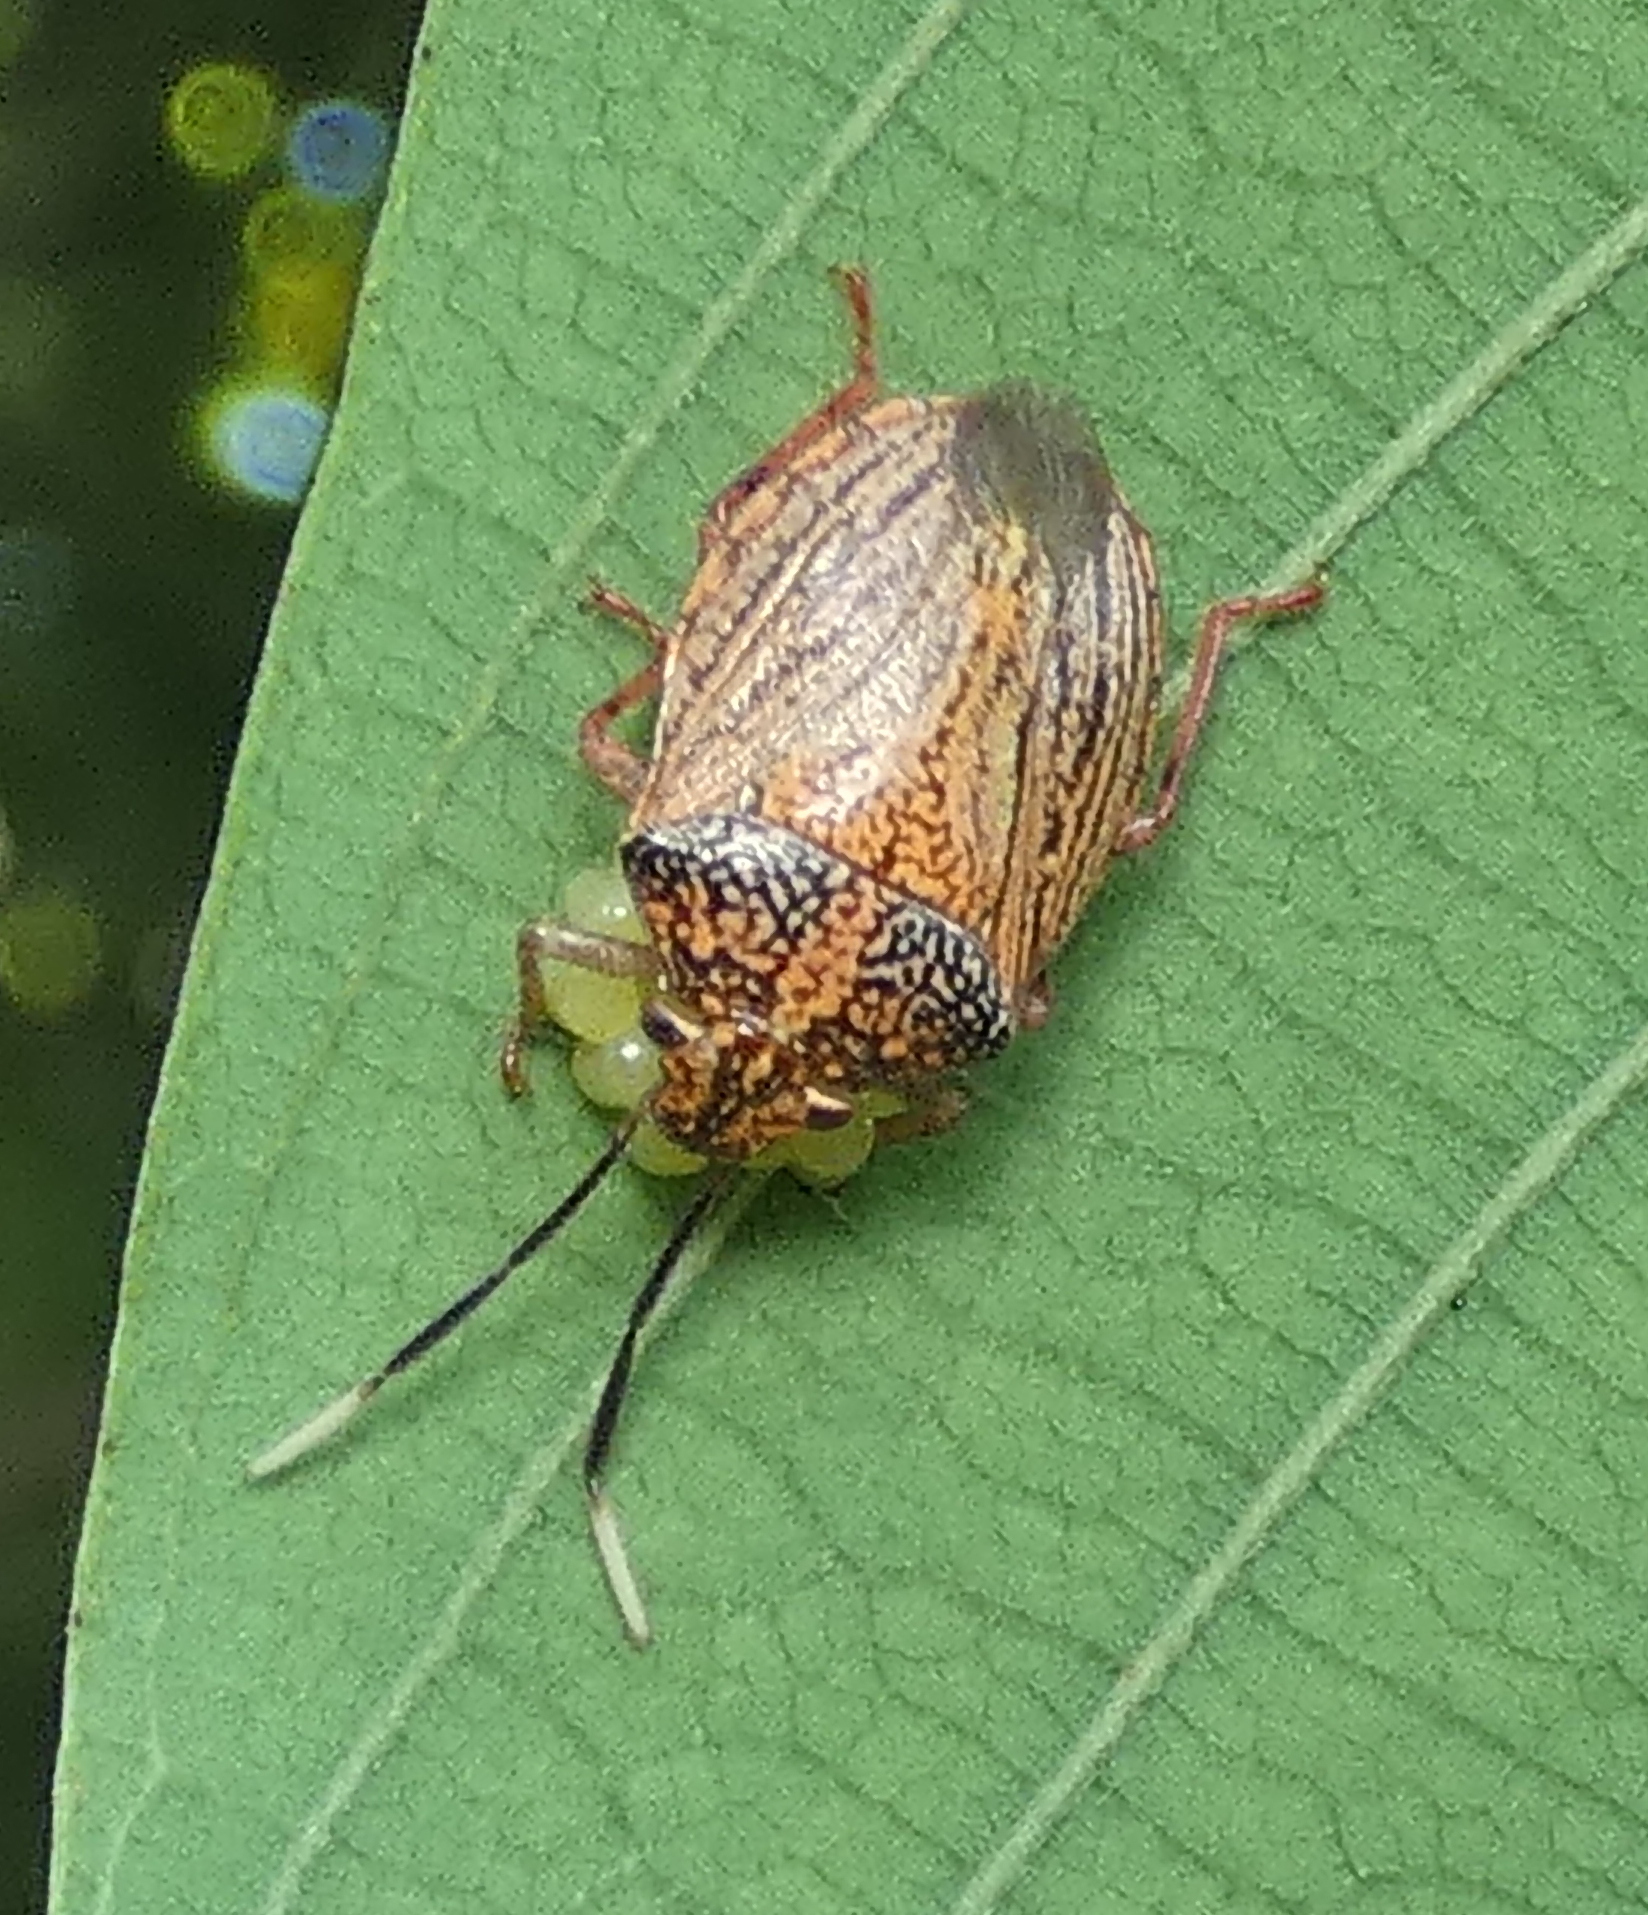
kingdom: Animalia
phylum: Arthropoda
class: Insecta
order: Hemiptera
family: Pentatomidae
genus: Antiteuchus
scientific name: Antiteuchus sepulcralis
